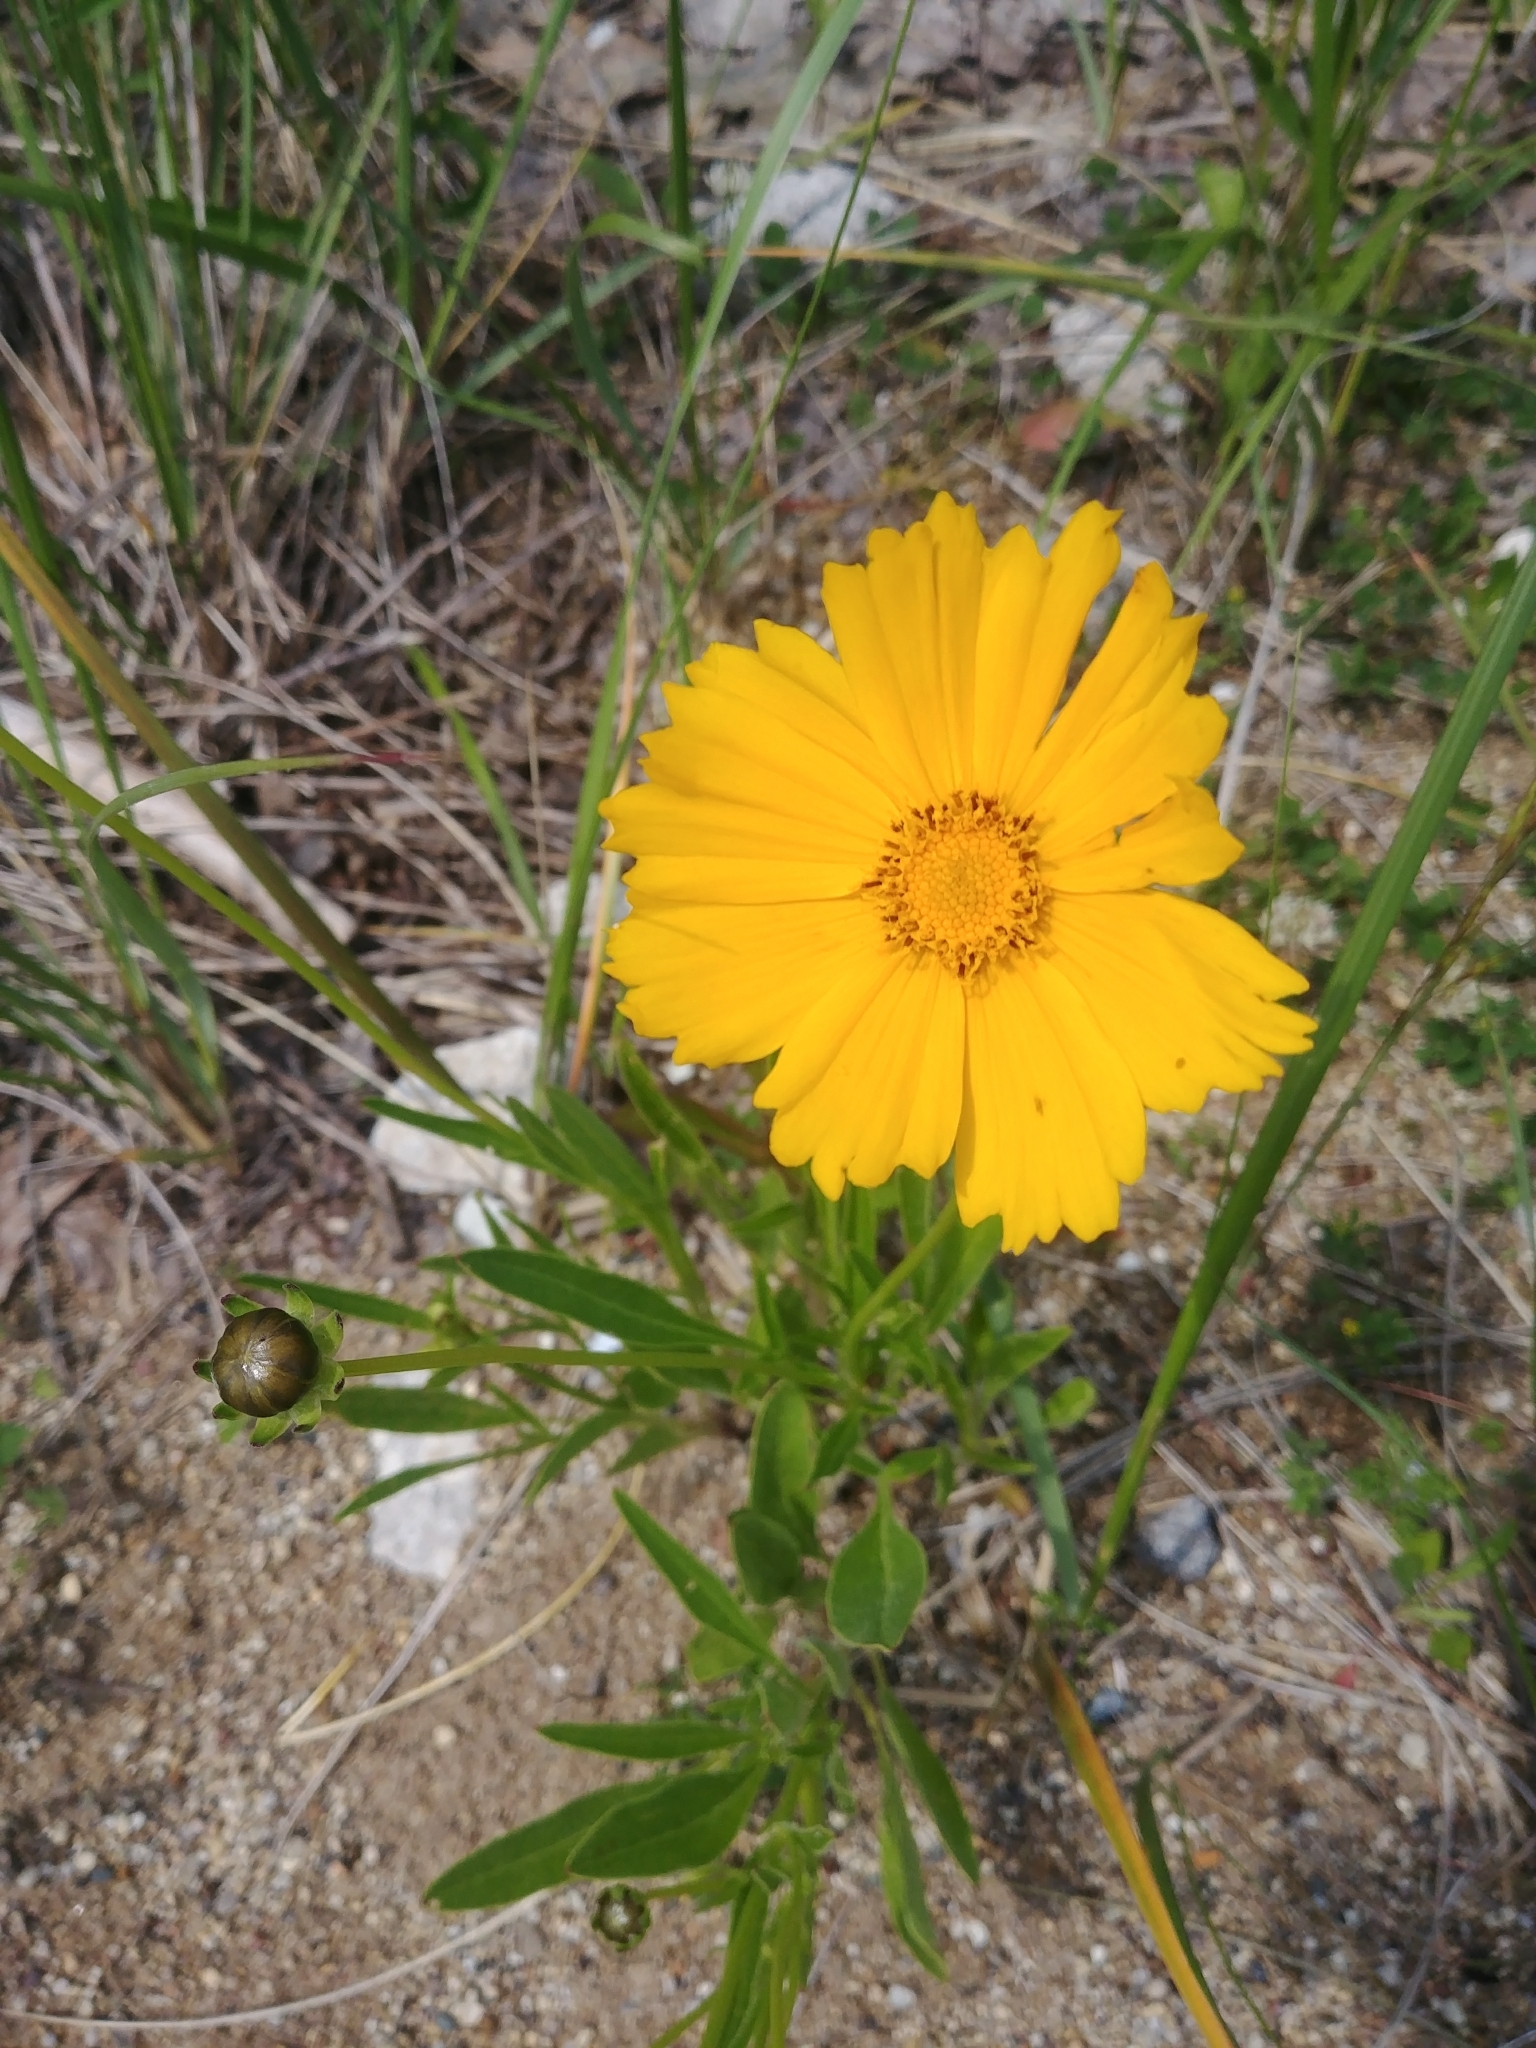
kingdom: Plantae
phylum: Tracheophyta
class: Magnoliopsida
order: Asterales
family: Asteraceae
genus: Coreopsis
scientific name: Coreopsis lanceolata
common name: Garden coreopsis
